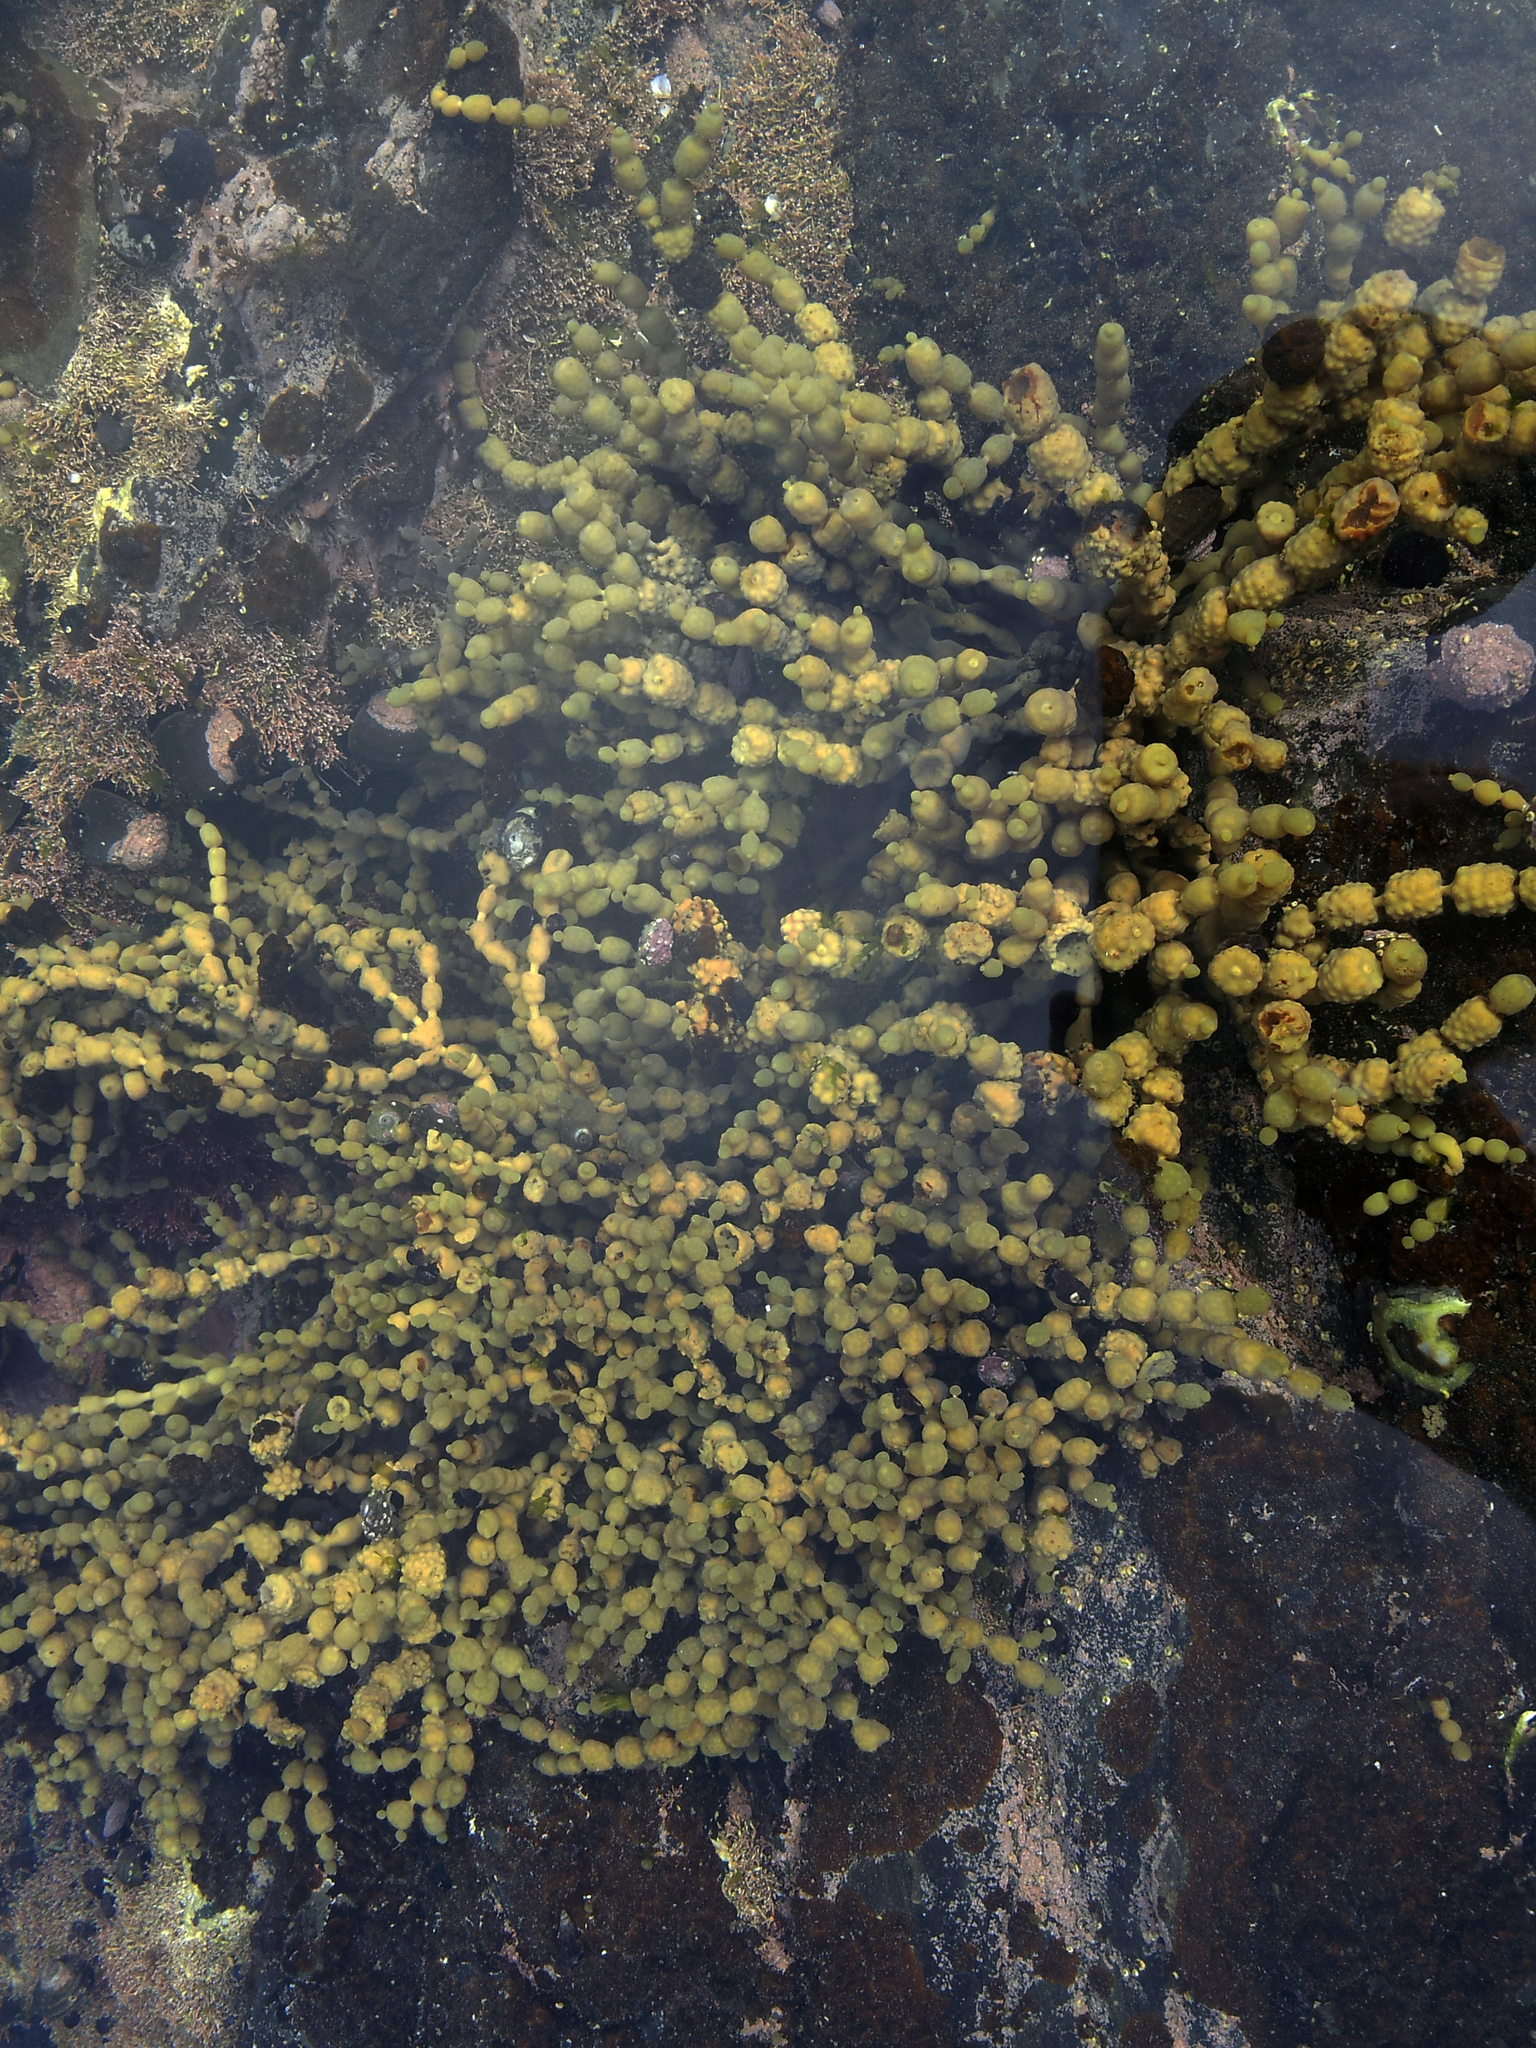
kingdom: Chromista
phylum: Ochrophyta
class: Phaeophyceae
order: Fucales
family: Hormosiraceae
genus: Hormosira
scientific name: Hormosira banksii
